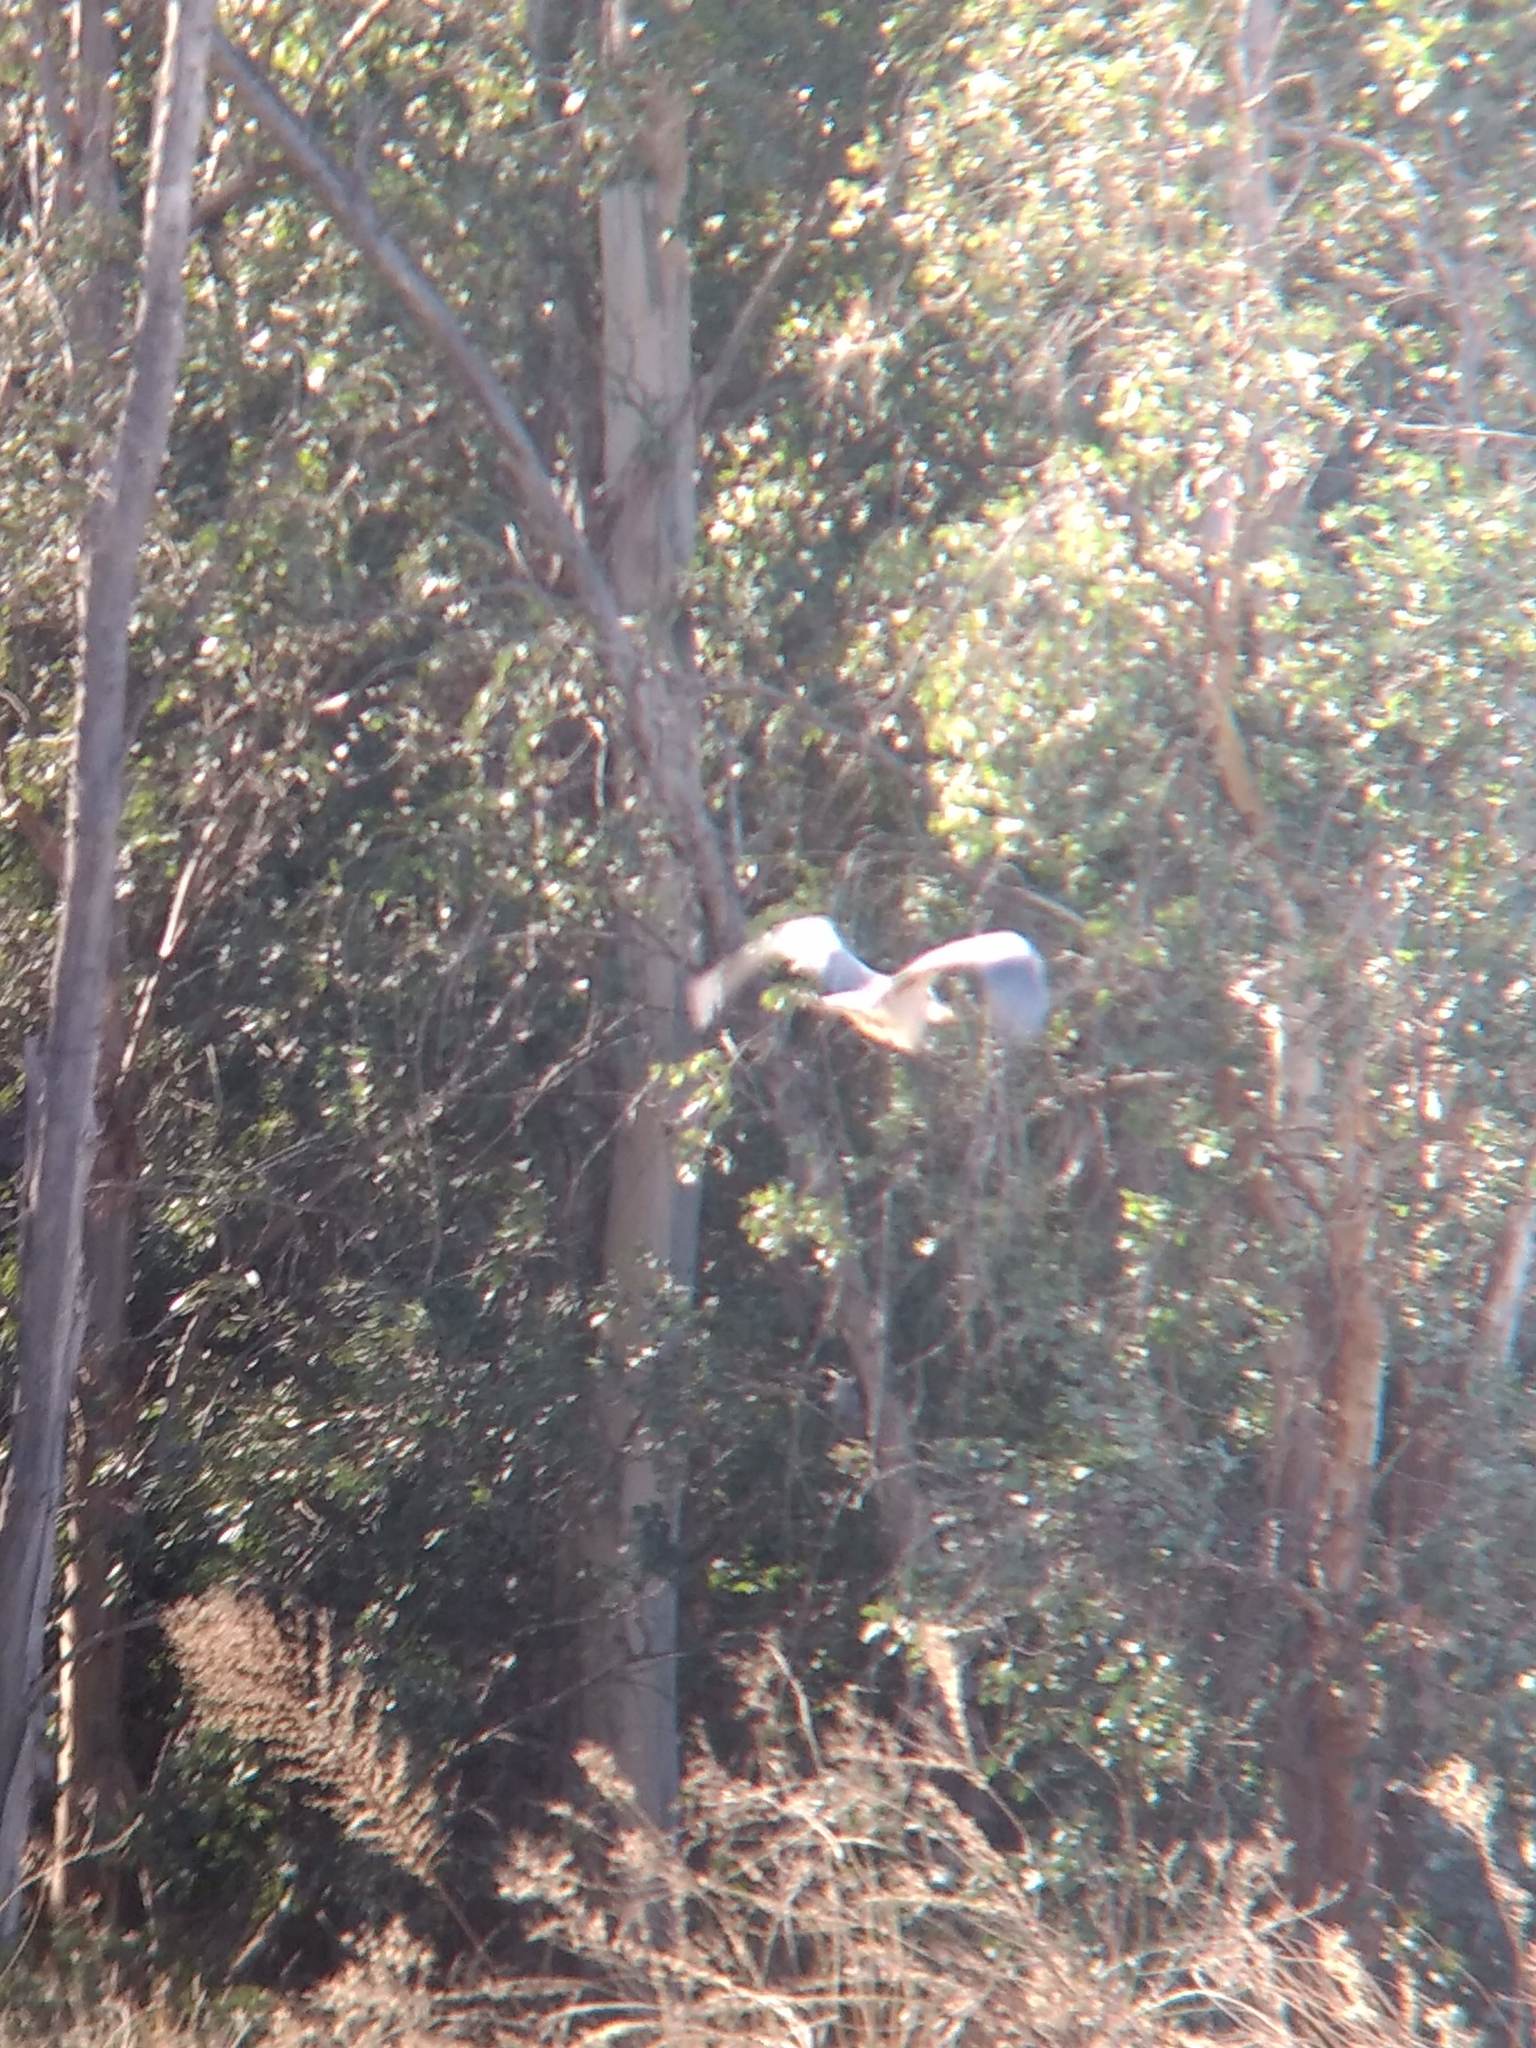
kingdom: Animalia
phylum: Chordata
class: Aves
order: Pelecaniformes
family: Ardeidae
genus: Ardea
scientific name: Ardea herodias
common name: Great blue heron
